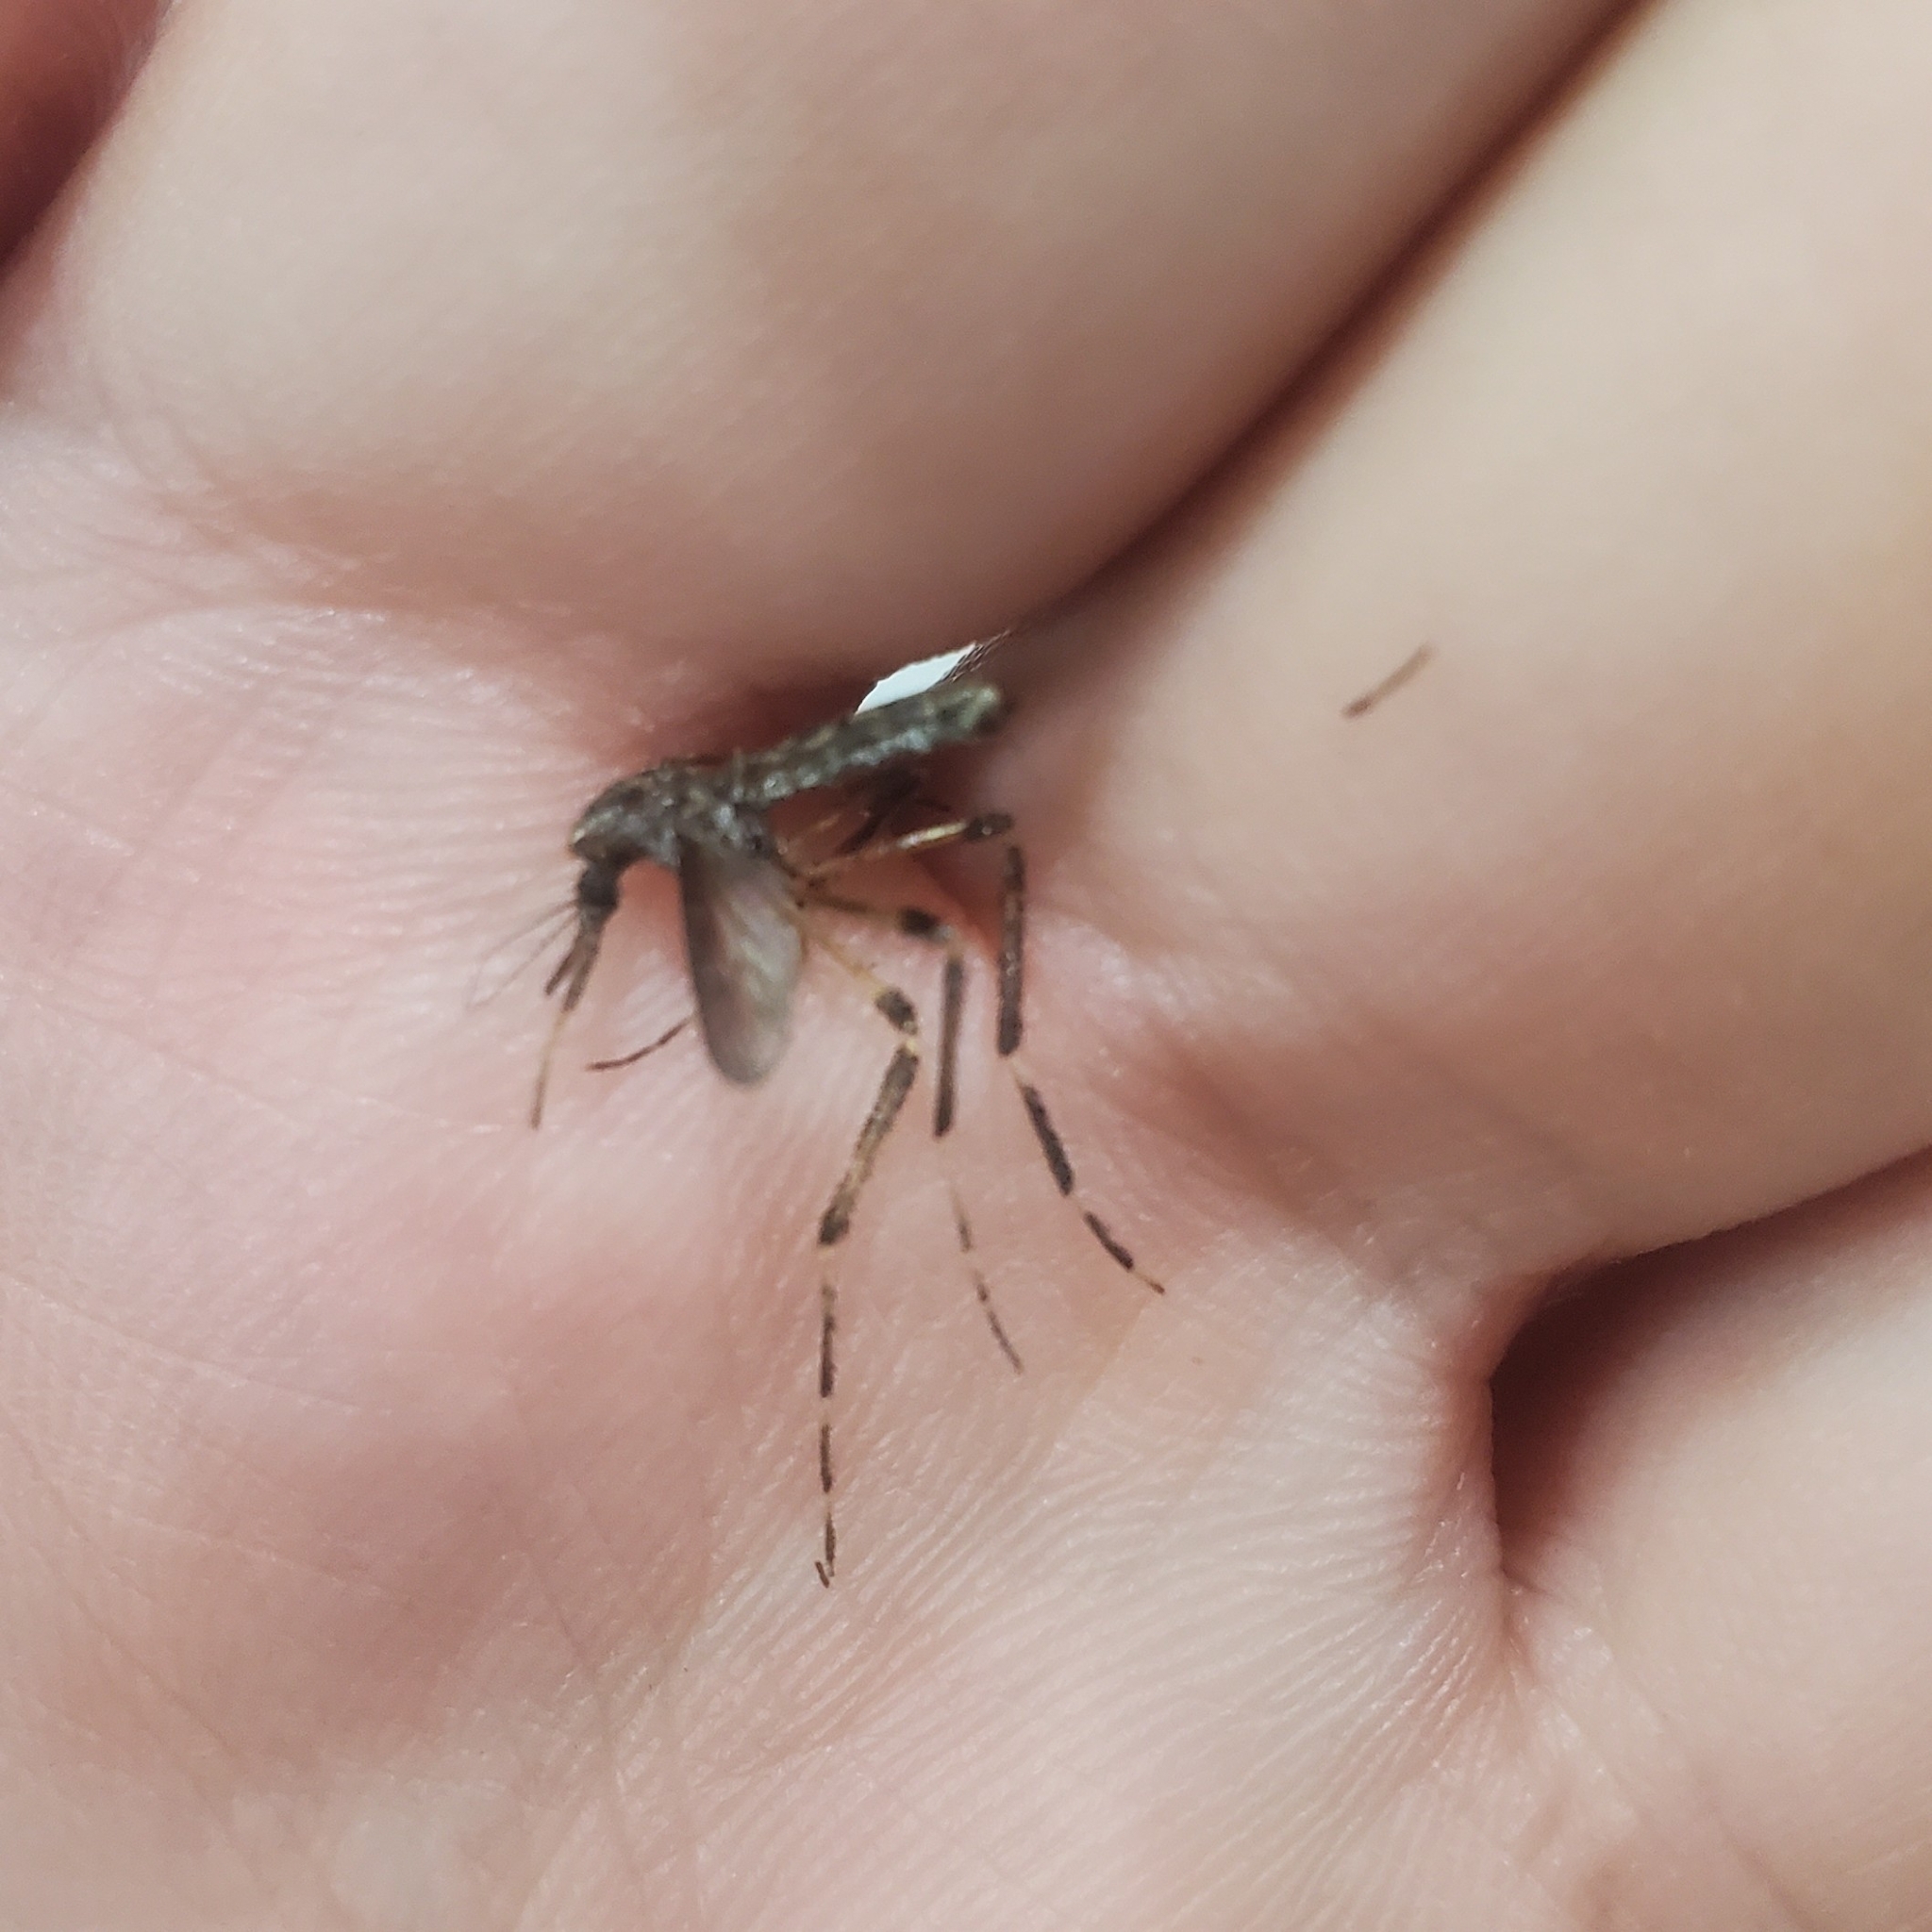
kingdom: Animalia
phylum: Arthropoda
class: Insecta
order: Diptera
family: Culicidae
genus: Psorophora
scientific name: Psorophora ciliata
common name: Gallinipper
